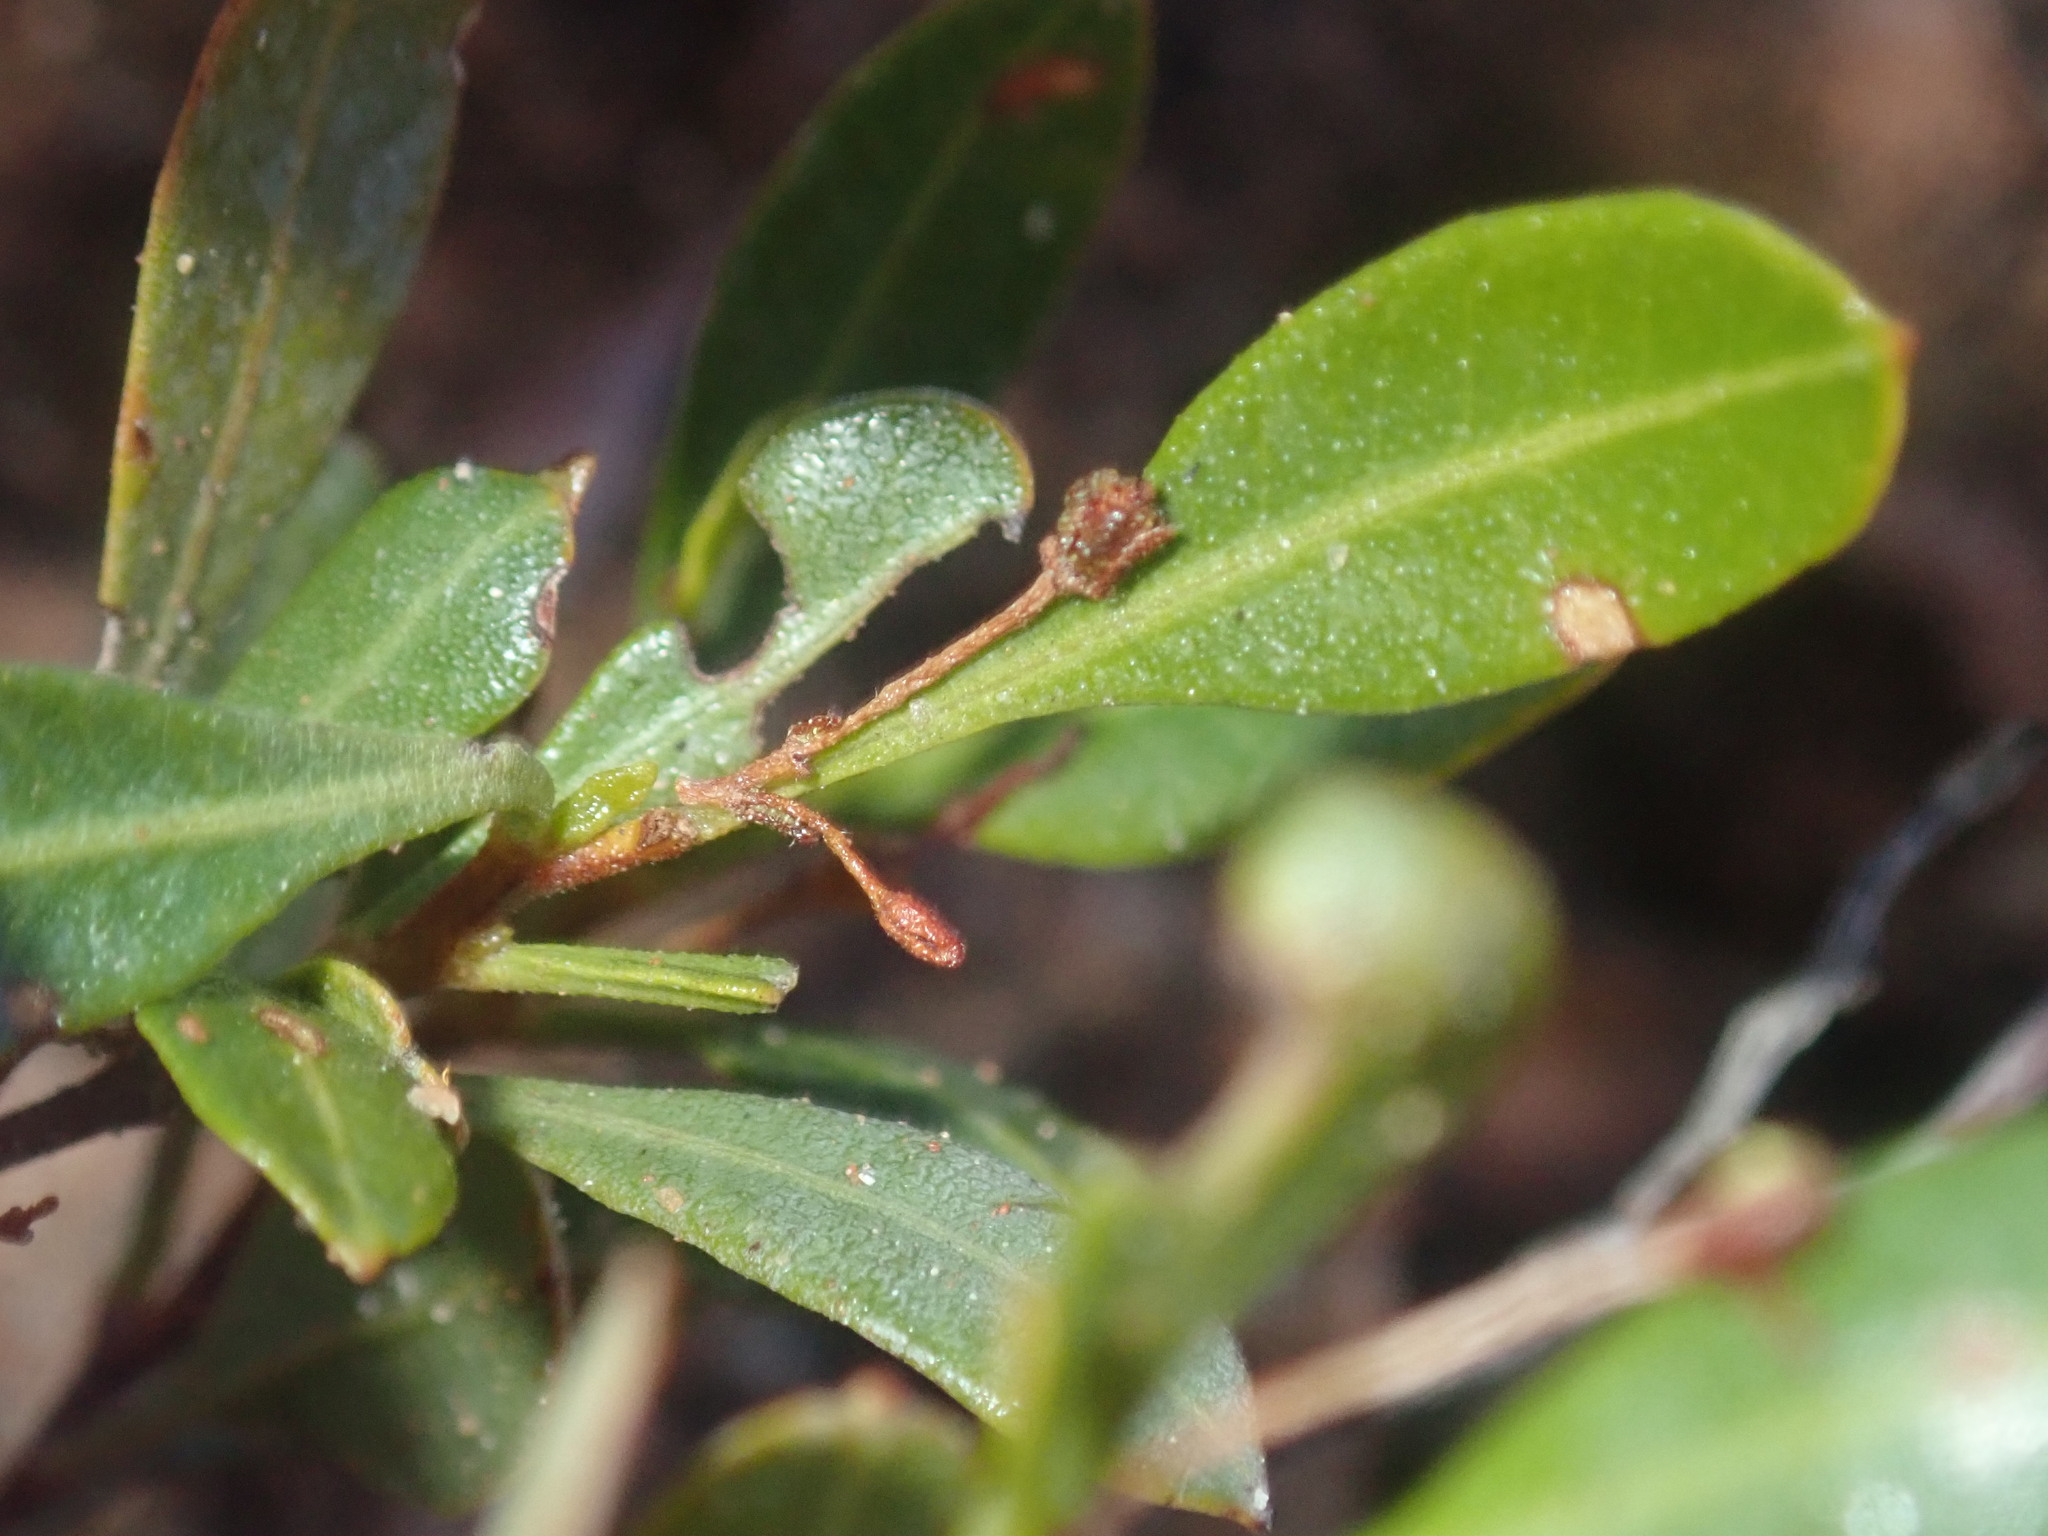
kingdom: Plantae
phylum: Tracheophyta
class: Magnoliopsida
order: Sapindales
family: Sapindaceae
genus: Dodonaea
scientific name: Dodonaea viscosa
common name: Hopbush
